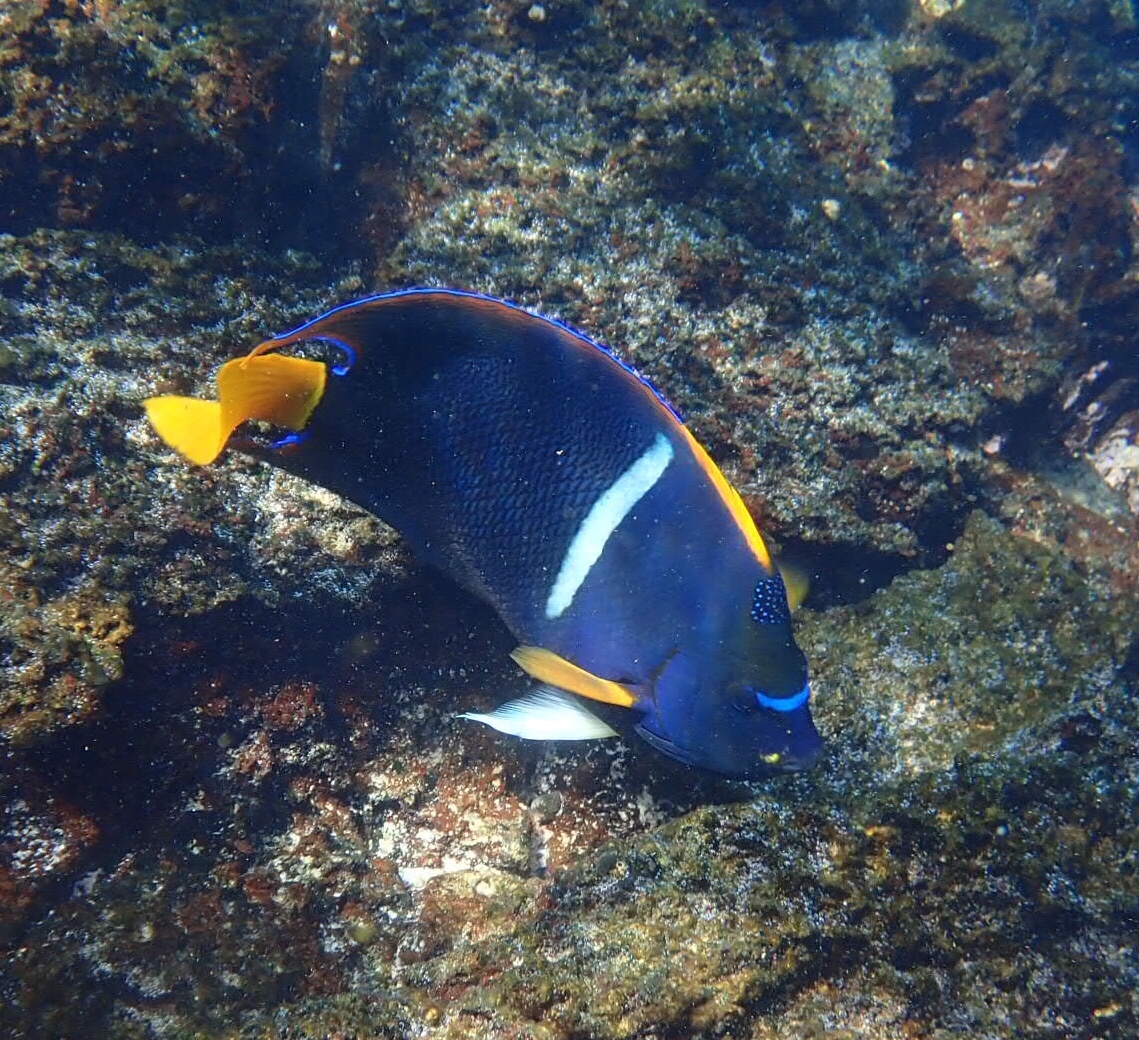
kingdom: Animalia
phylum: Chordata
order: Perciformes
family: Pomacanthidae
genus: Holacanthus
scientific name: Holacanthus passer
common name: King angelfish
